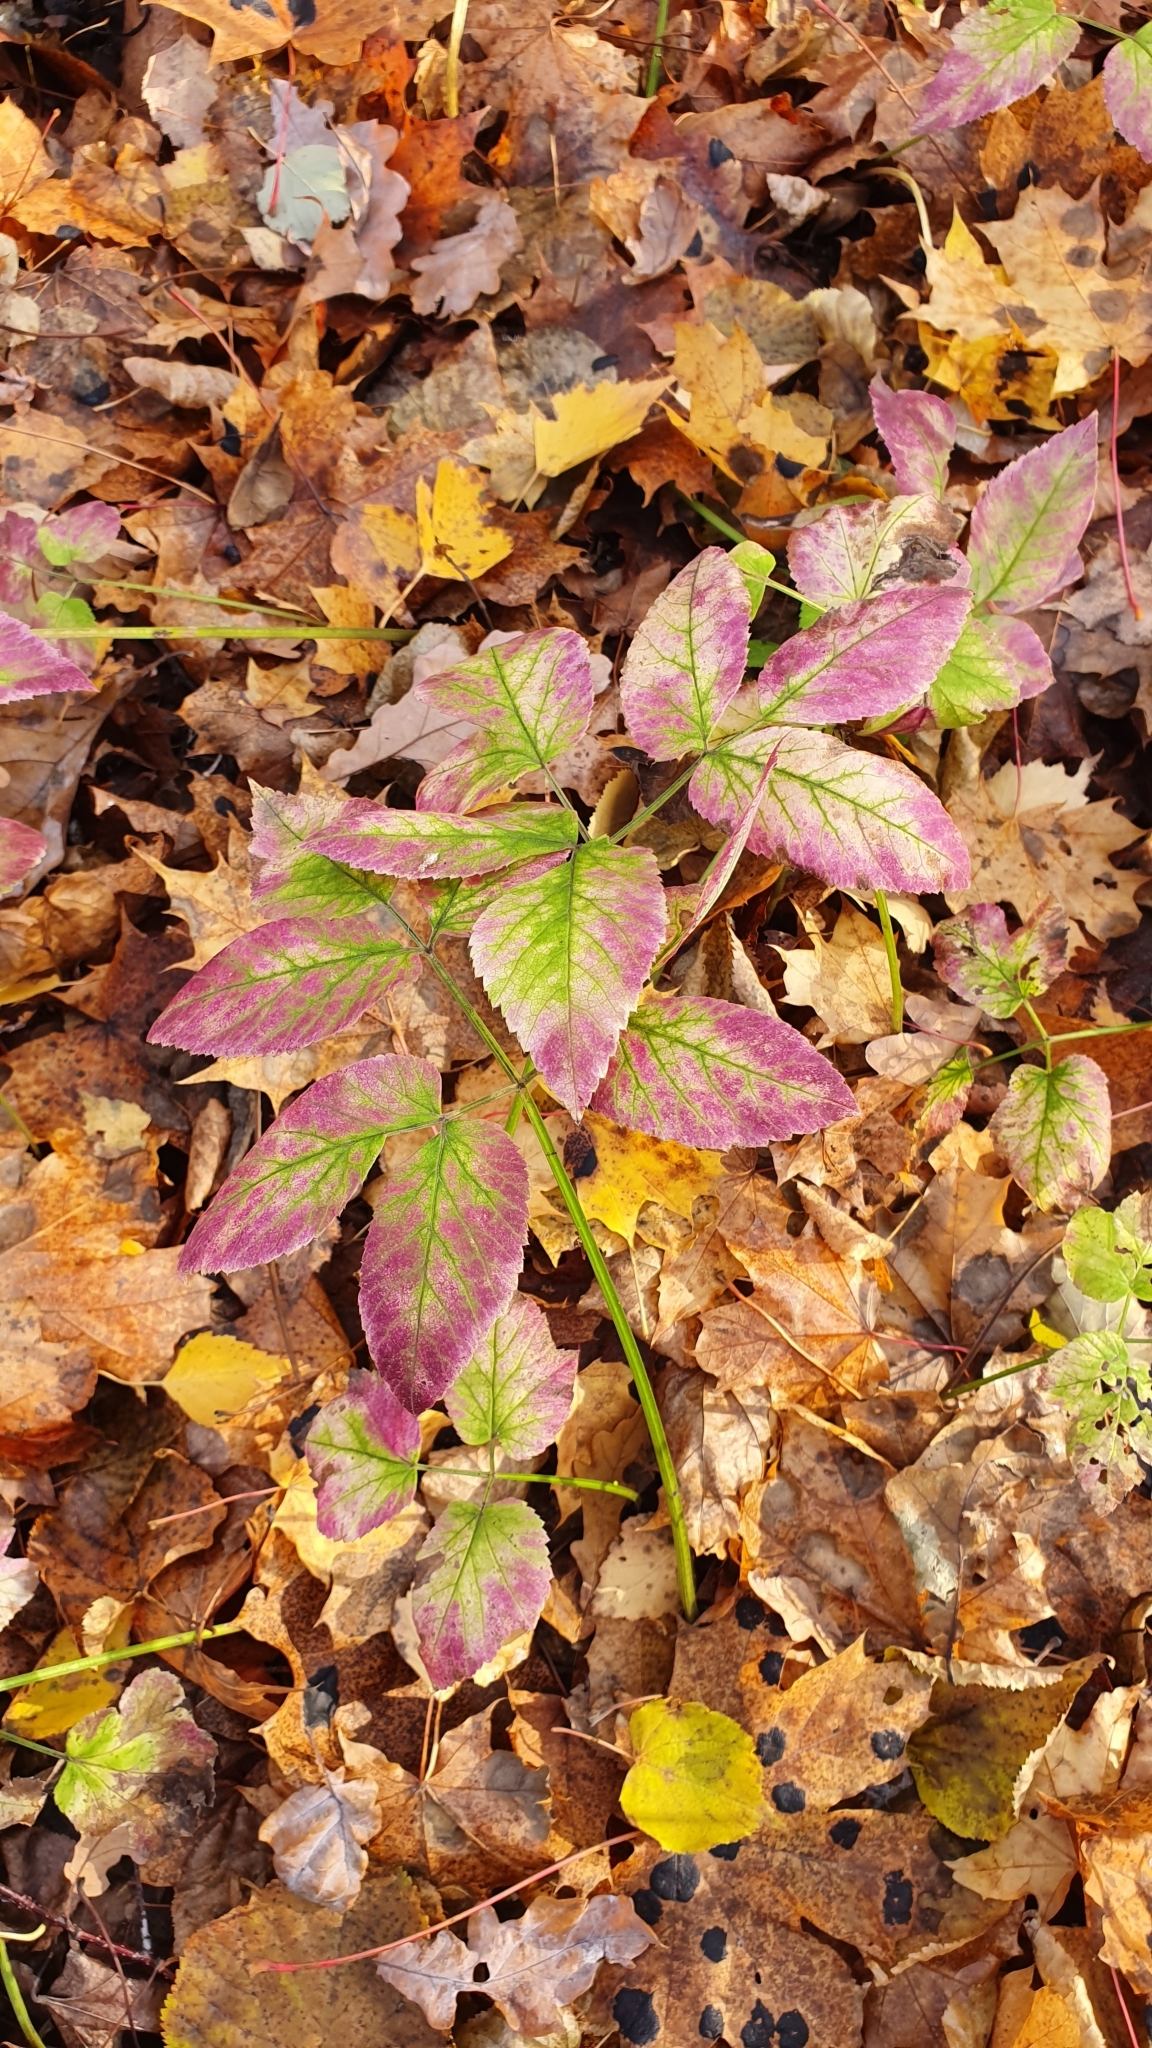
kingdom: Plantae
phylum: Tracheophyta
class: Magnoliopsida
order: Apiales
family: Apiaceae
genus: Aegopodium
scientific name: Aegopodium podagraria
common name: Ground-elder
